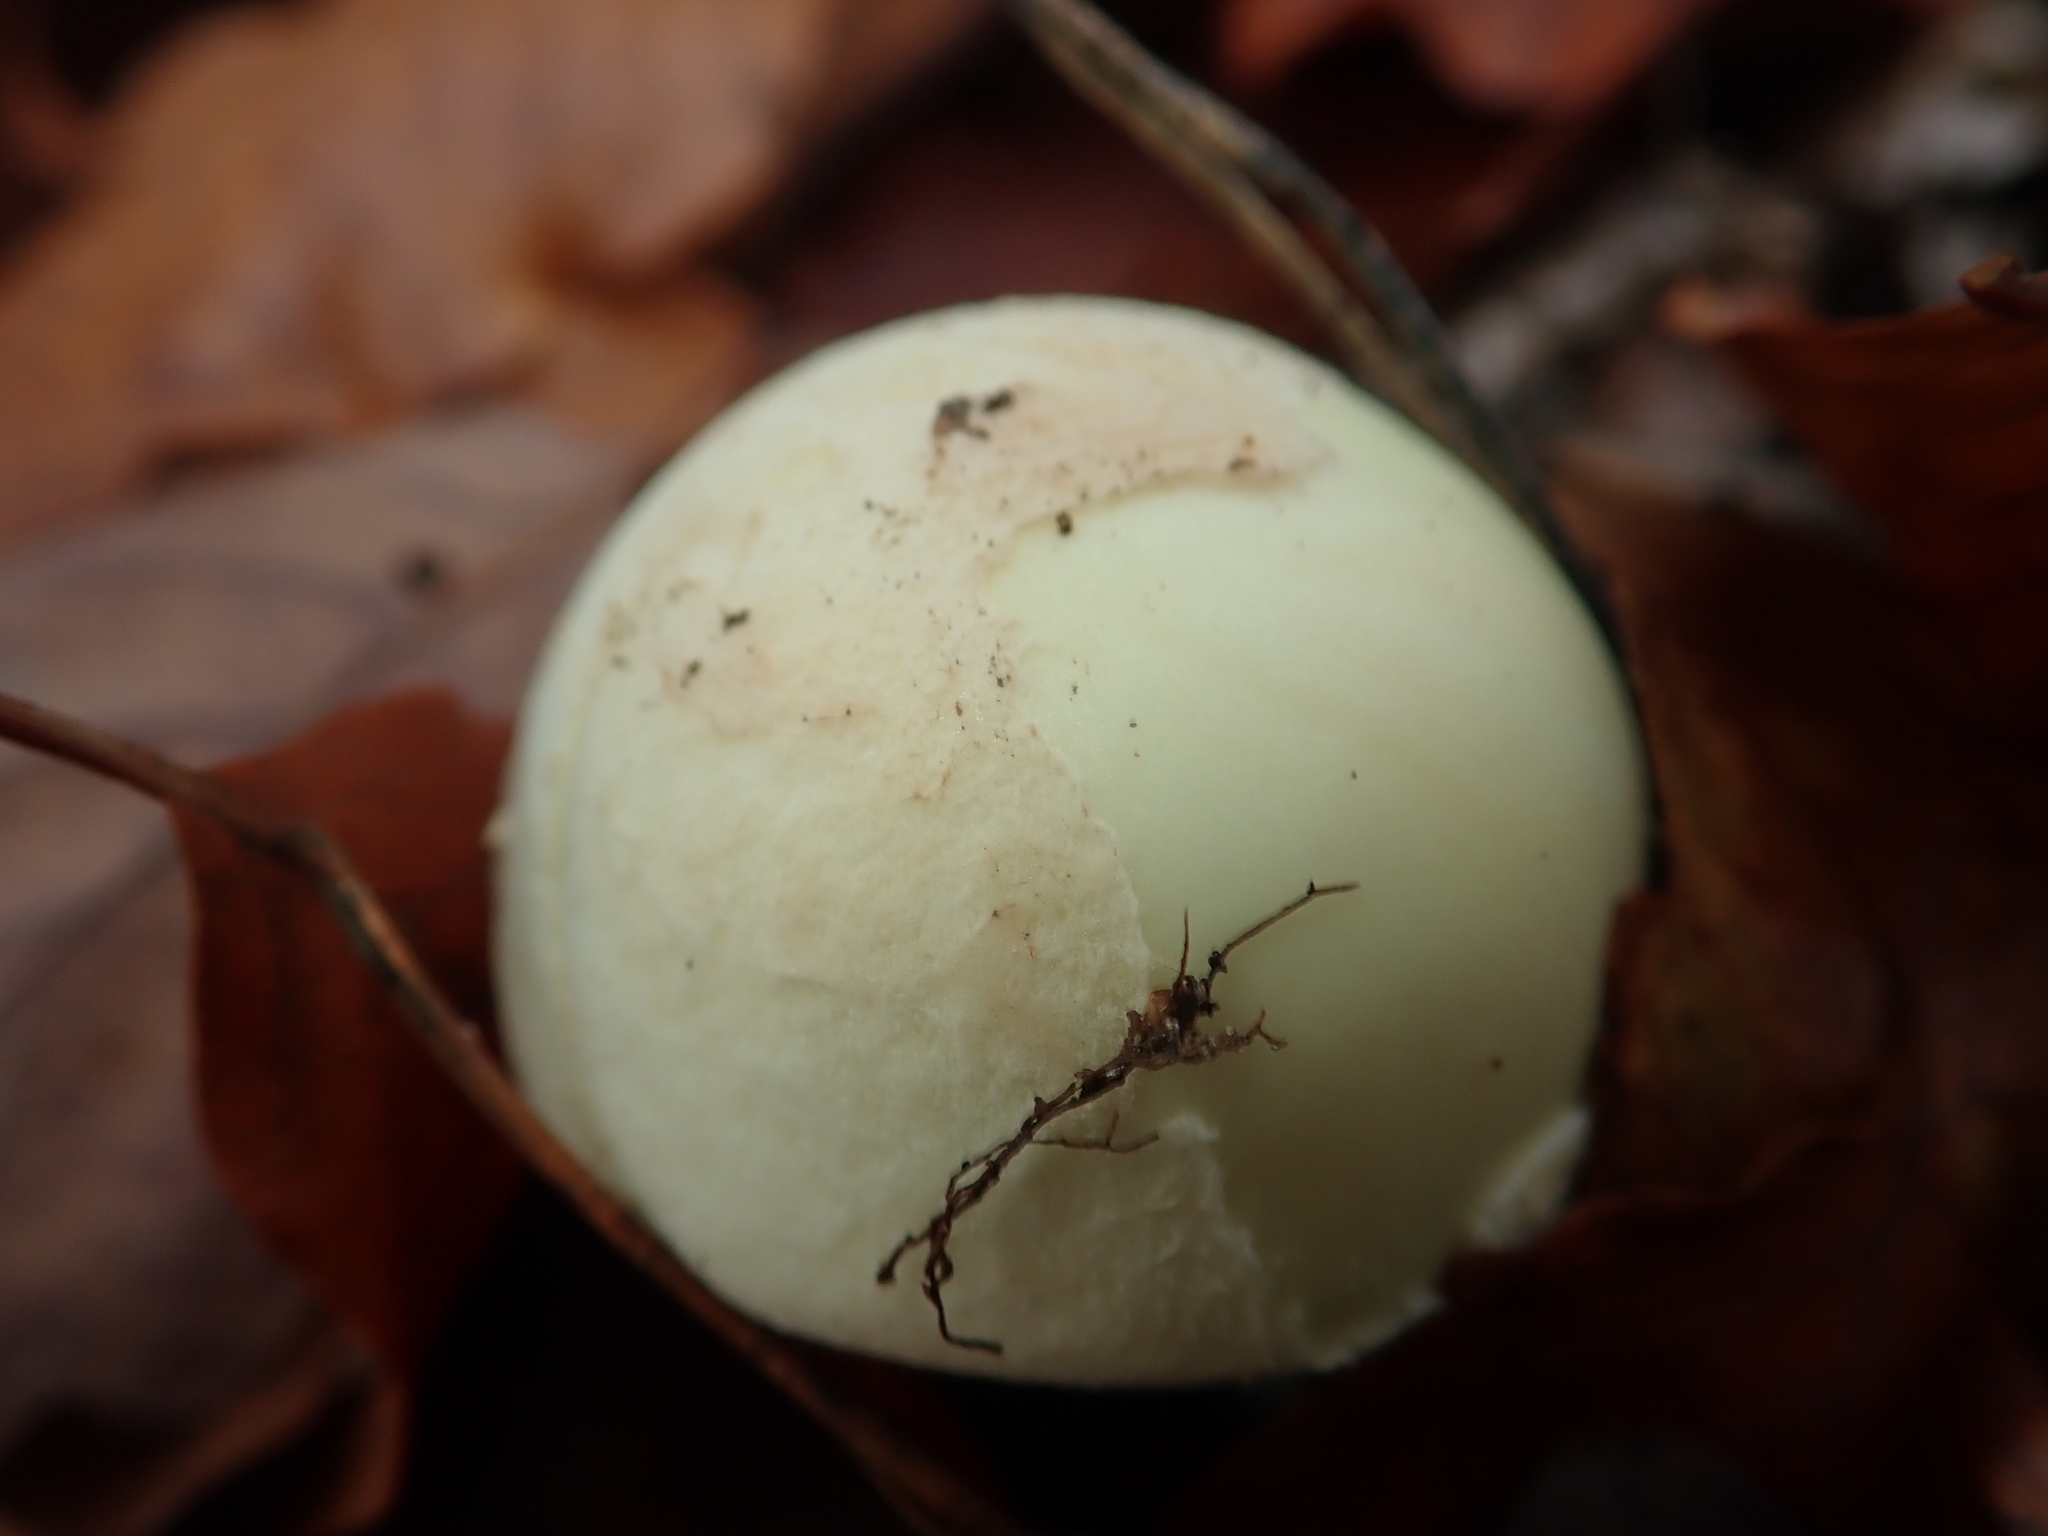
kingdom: Fungi
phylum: Basidiomycota
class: Agaricomycetes
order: Agaricales
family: Amanitaceae
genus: Amanita
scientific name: Amanita citrina
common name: False death-cap
